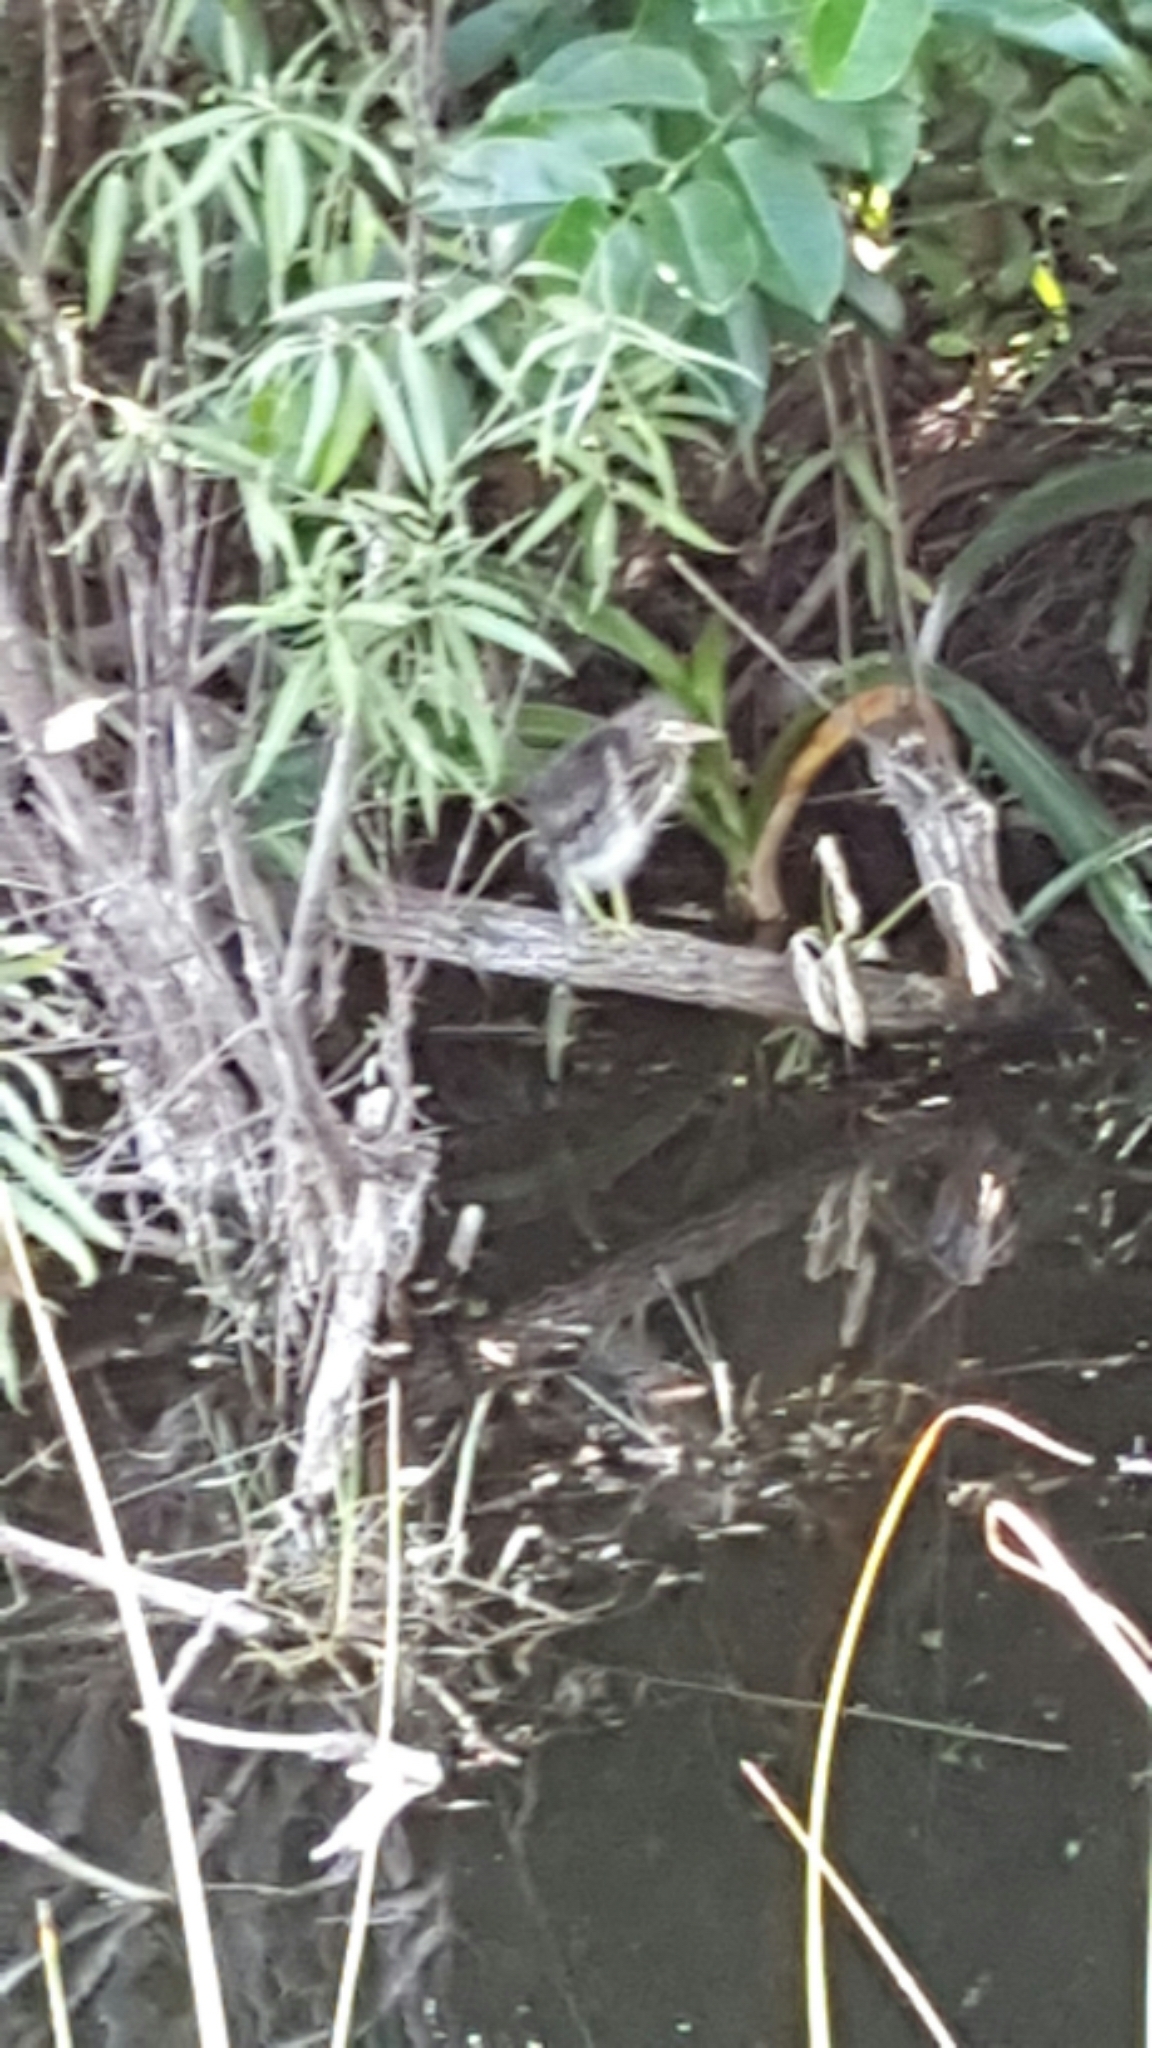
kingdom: Animalia
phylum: Chordata
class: Aves
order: Pelecaniformes
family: Ardeidae
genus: Butorides
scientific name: Butorides virescens
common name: Green heron
